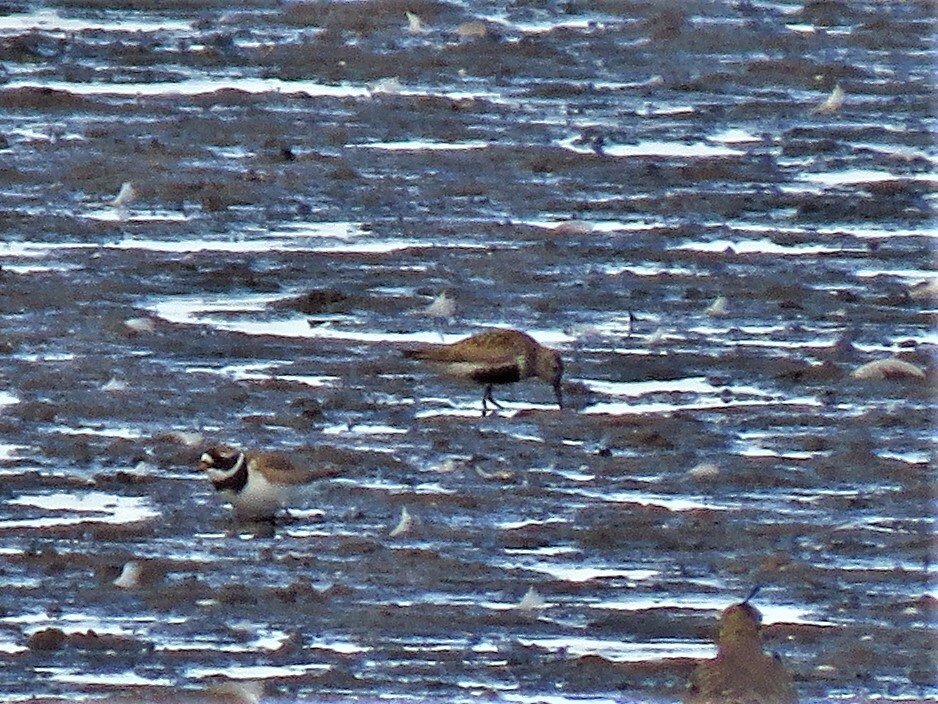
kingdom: Animalia
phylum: Chordata
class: Aves
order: Charadriiformes
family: Scolopacidae
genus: Calidris
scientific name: Calidris alpina
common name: Dunlin
